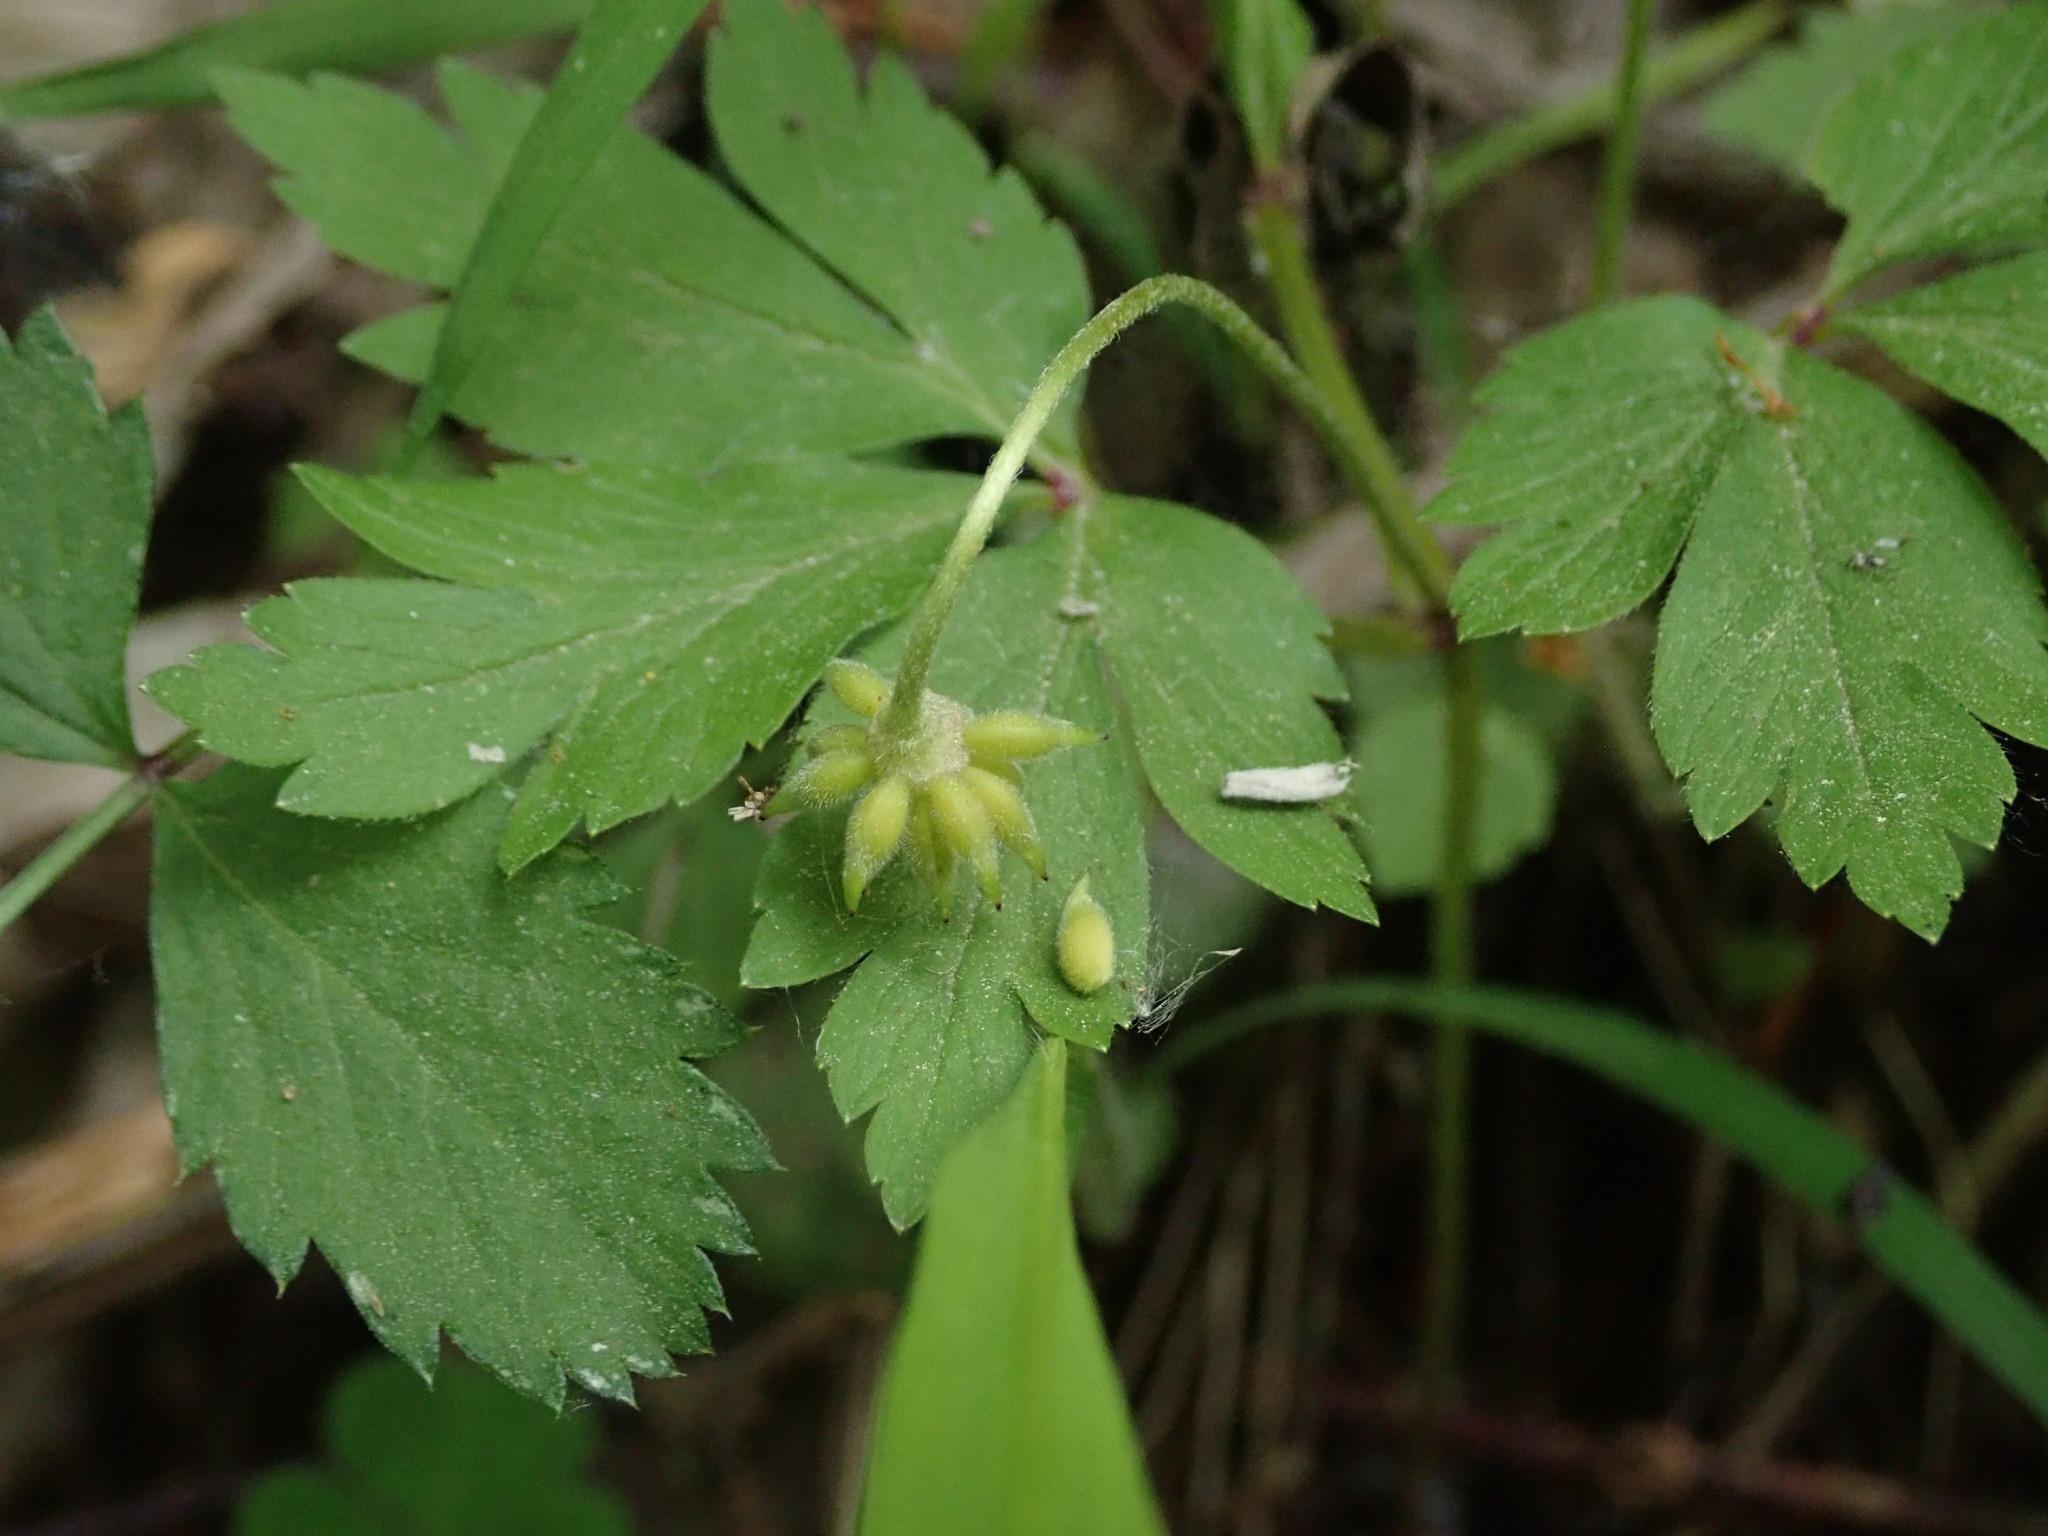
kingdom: Plantae
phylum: Tracheophyta
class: Magnoliopsida
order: Ranunculales
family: Ranunculaceae
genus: Anemone
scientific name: Anemone nemorosa
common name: Wood anemone
